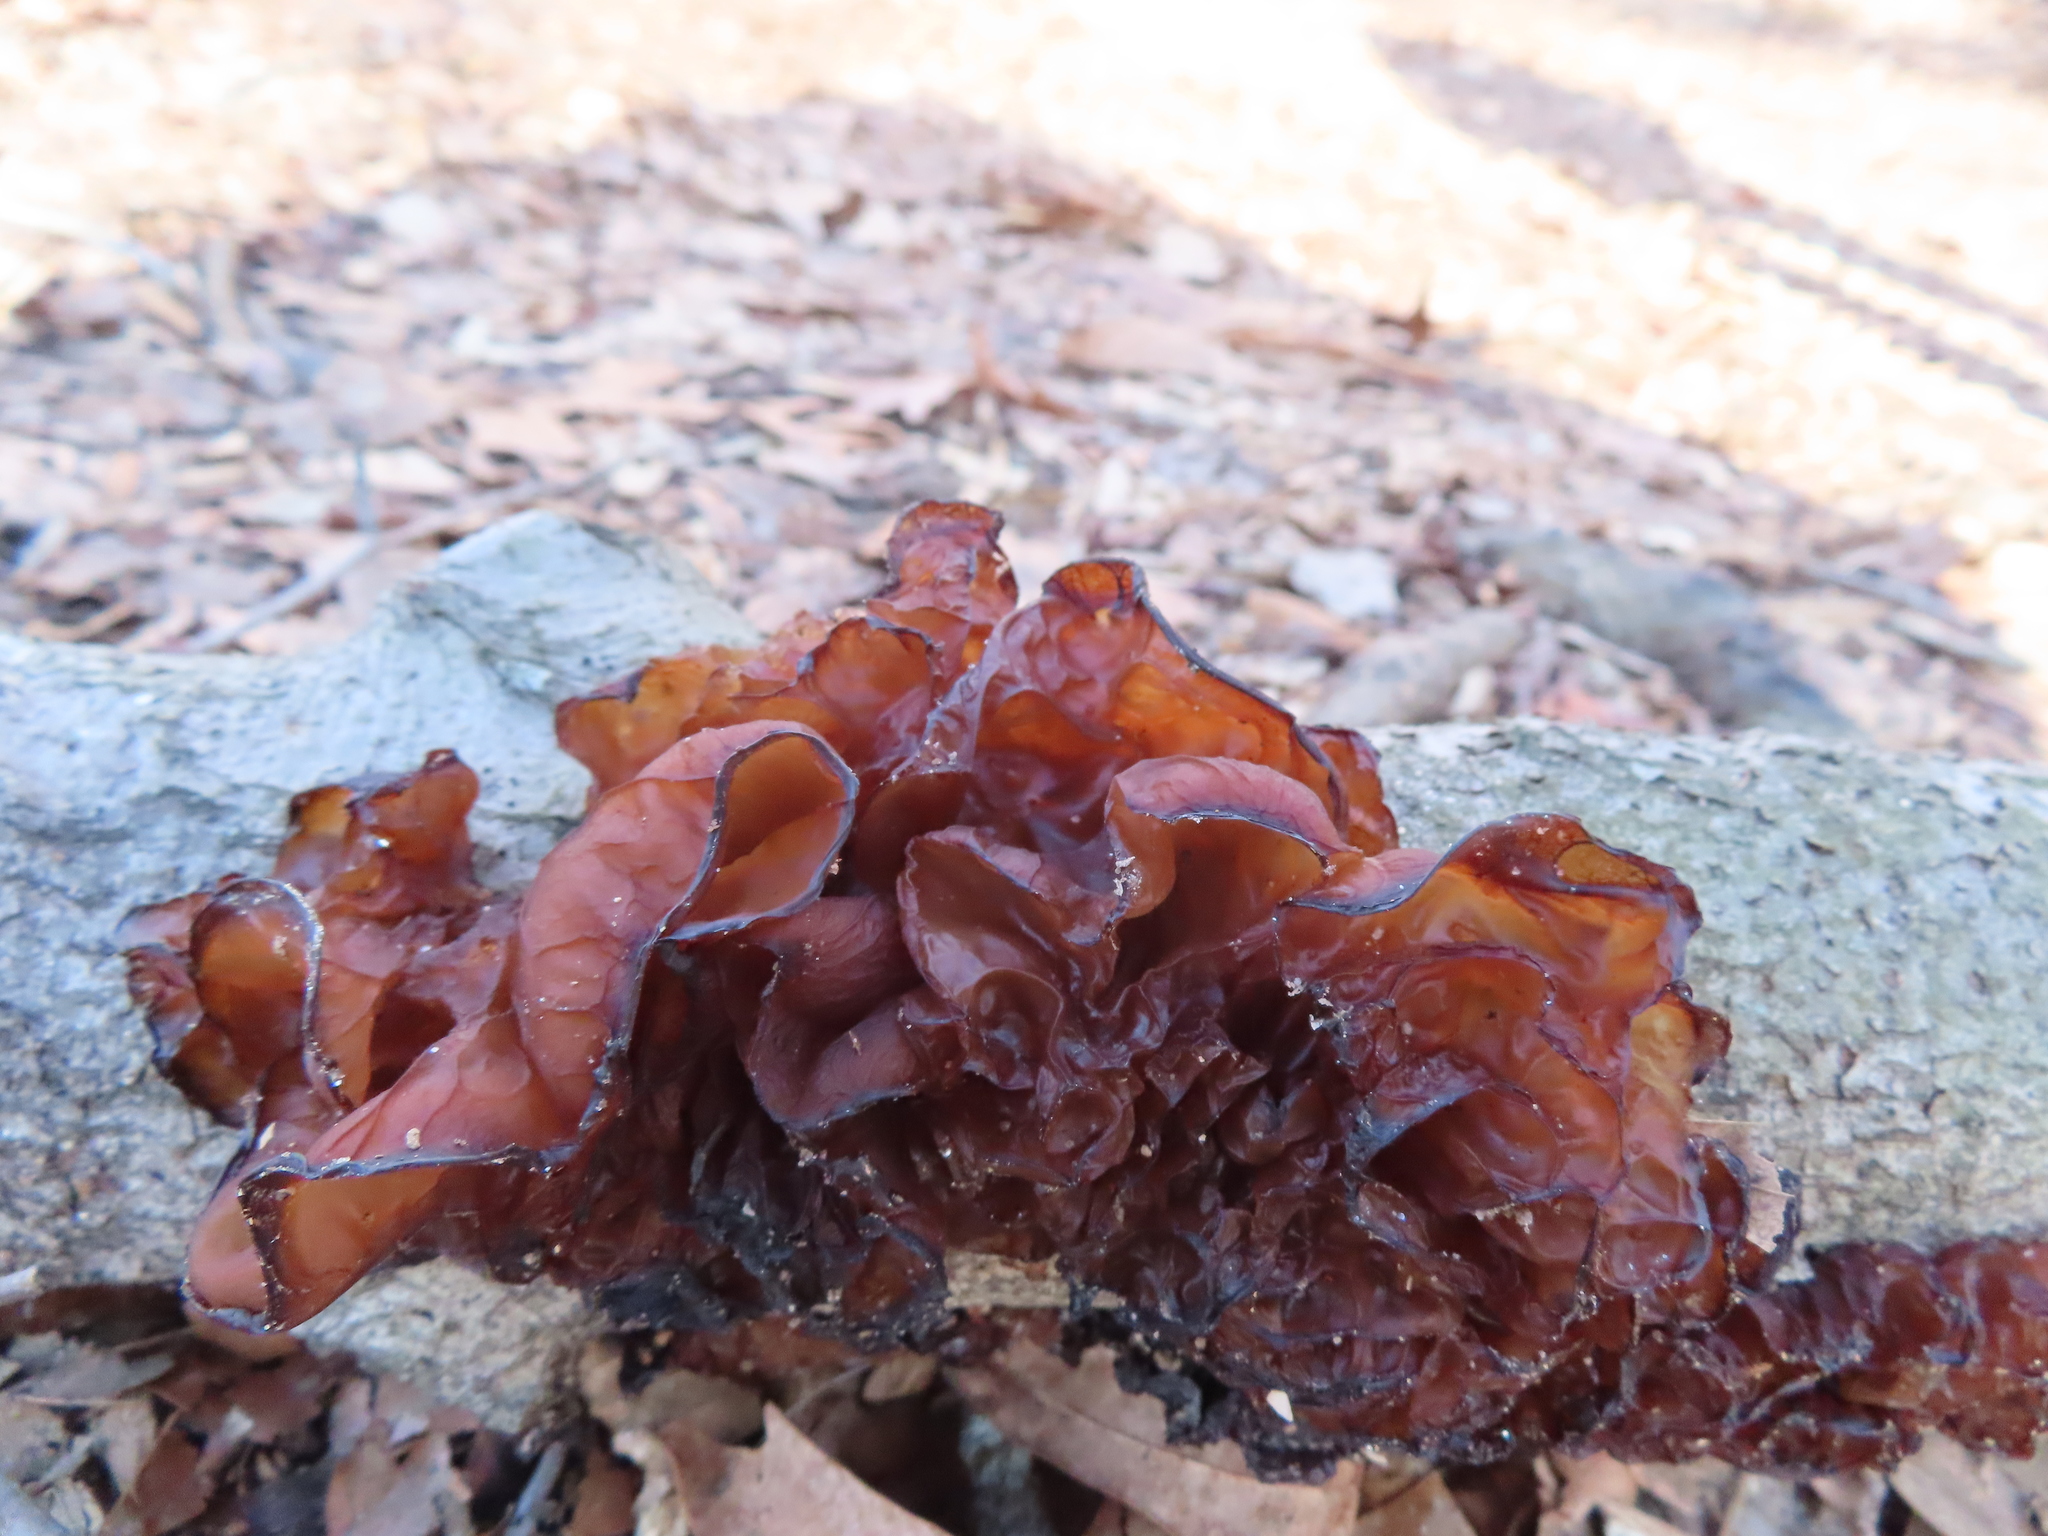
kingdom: Fungi
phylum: Basidiomycota
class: Agaricomycetes
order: Auriculariales
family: Auriculariaceae
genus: Exidia
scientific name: Exidia recisa
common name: Amber jelly
